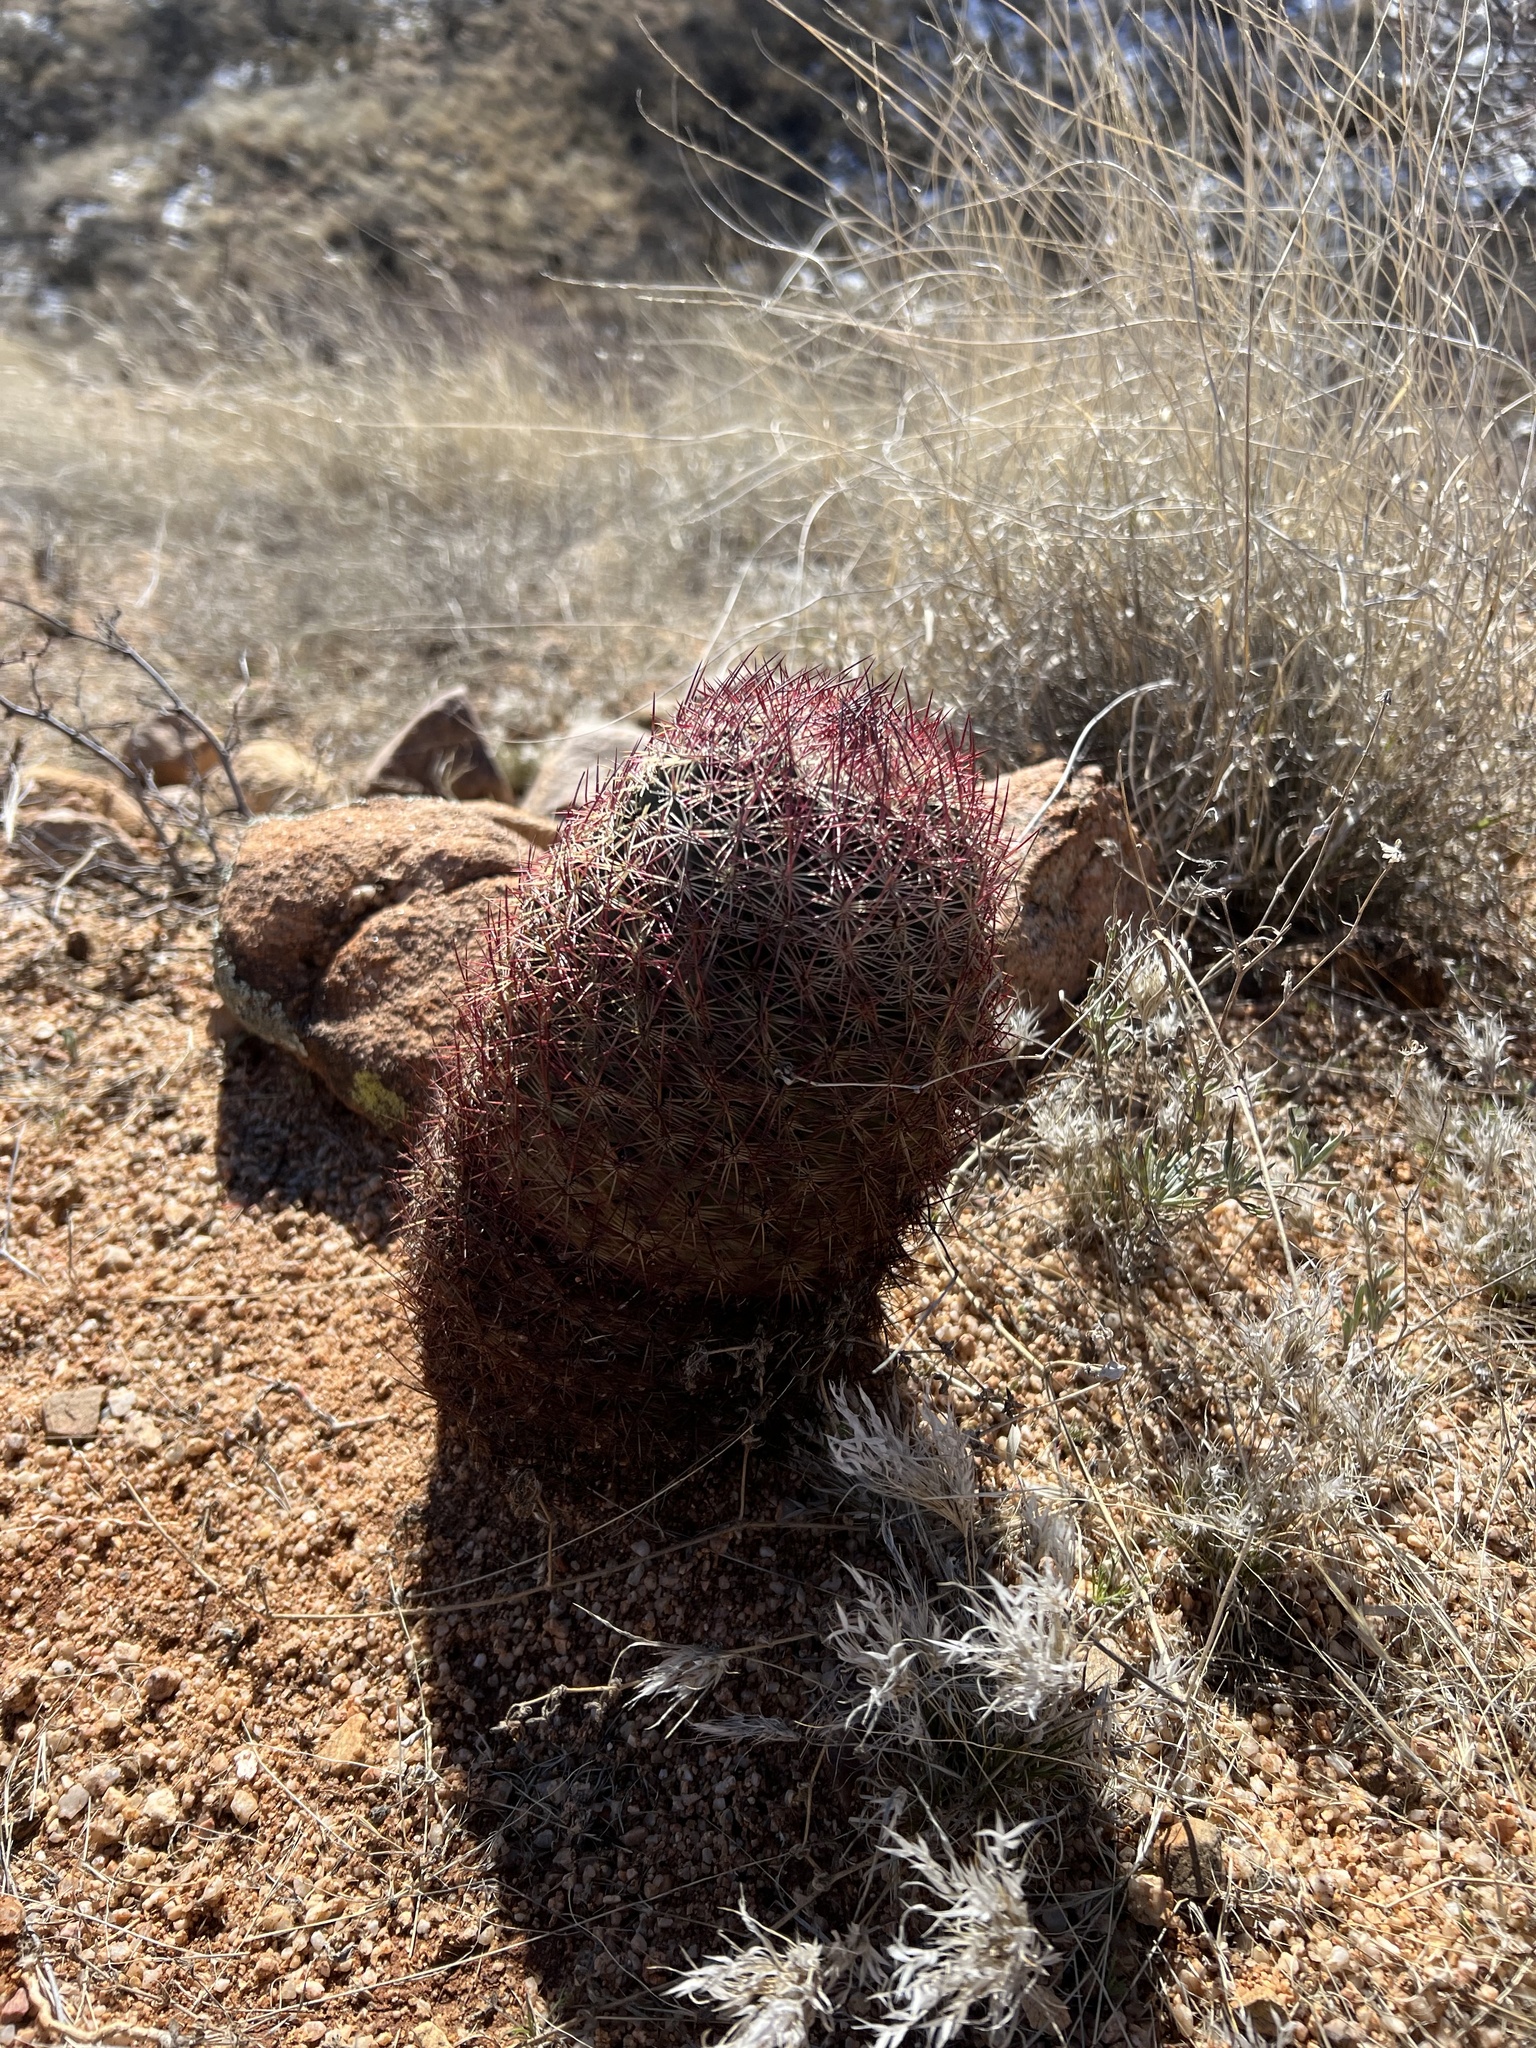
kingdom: Plantae
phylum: Tracheophyta
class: Magnoliopsida
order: Caryophyllales
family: Cactaceae
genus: Sclerocactus
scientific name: Sclerocactus johnsonii
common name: Eight-spine fishhook cactus
